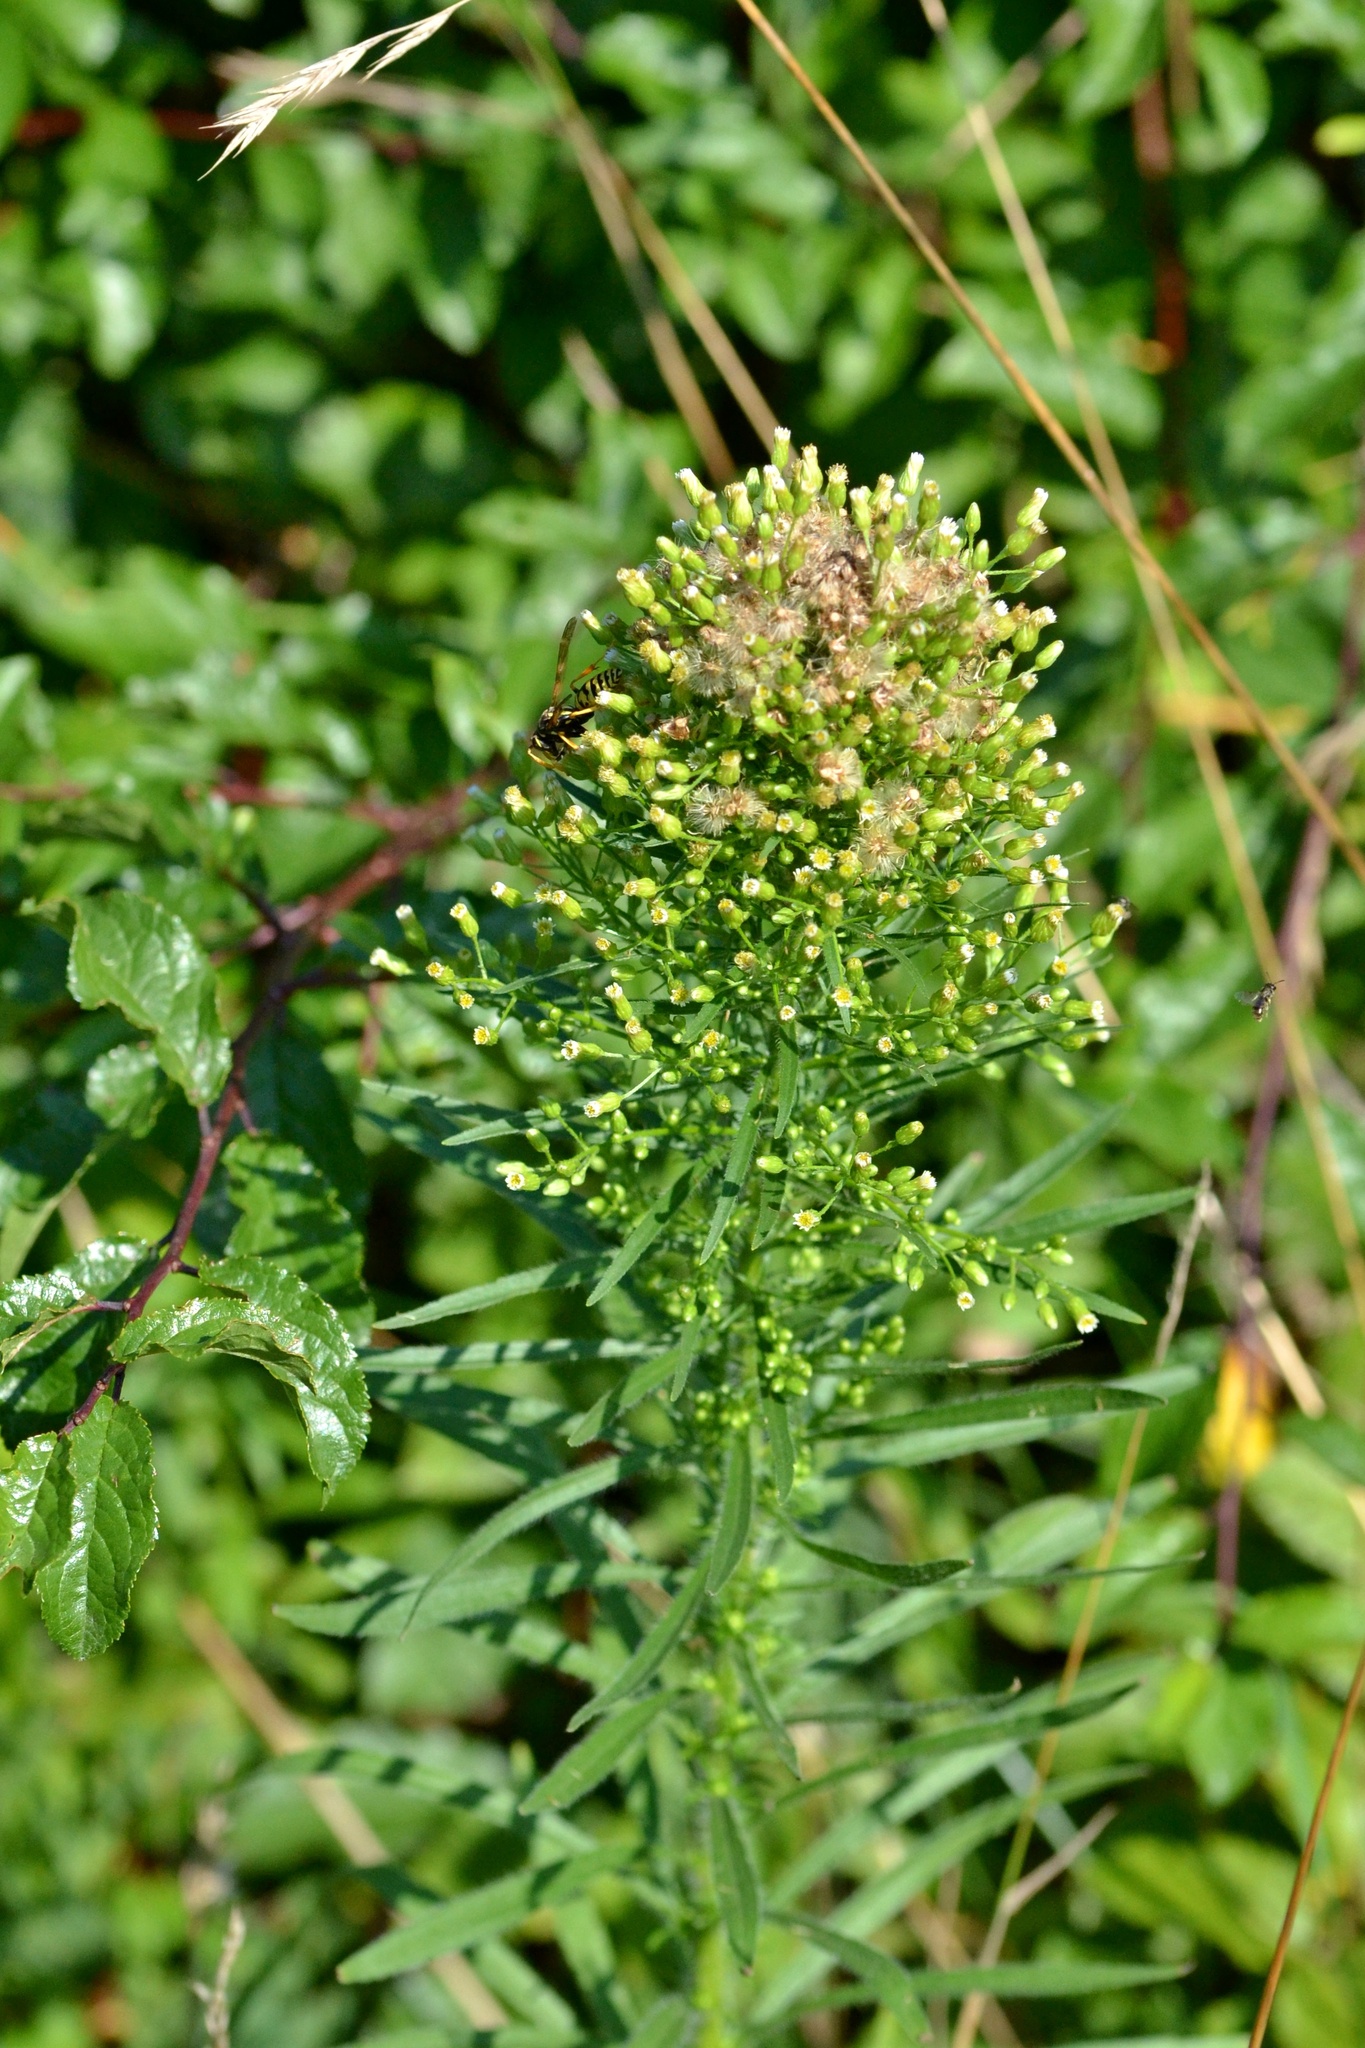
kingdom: Plantae
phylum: Tracheophyta
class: Magnoliopsida
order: Asterales
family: Asteraceae
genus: Erigeron
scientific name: Erigeron canadensis
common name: Canadian fleabane
